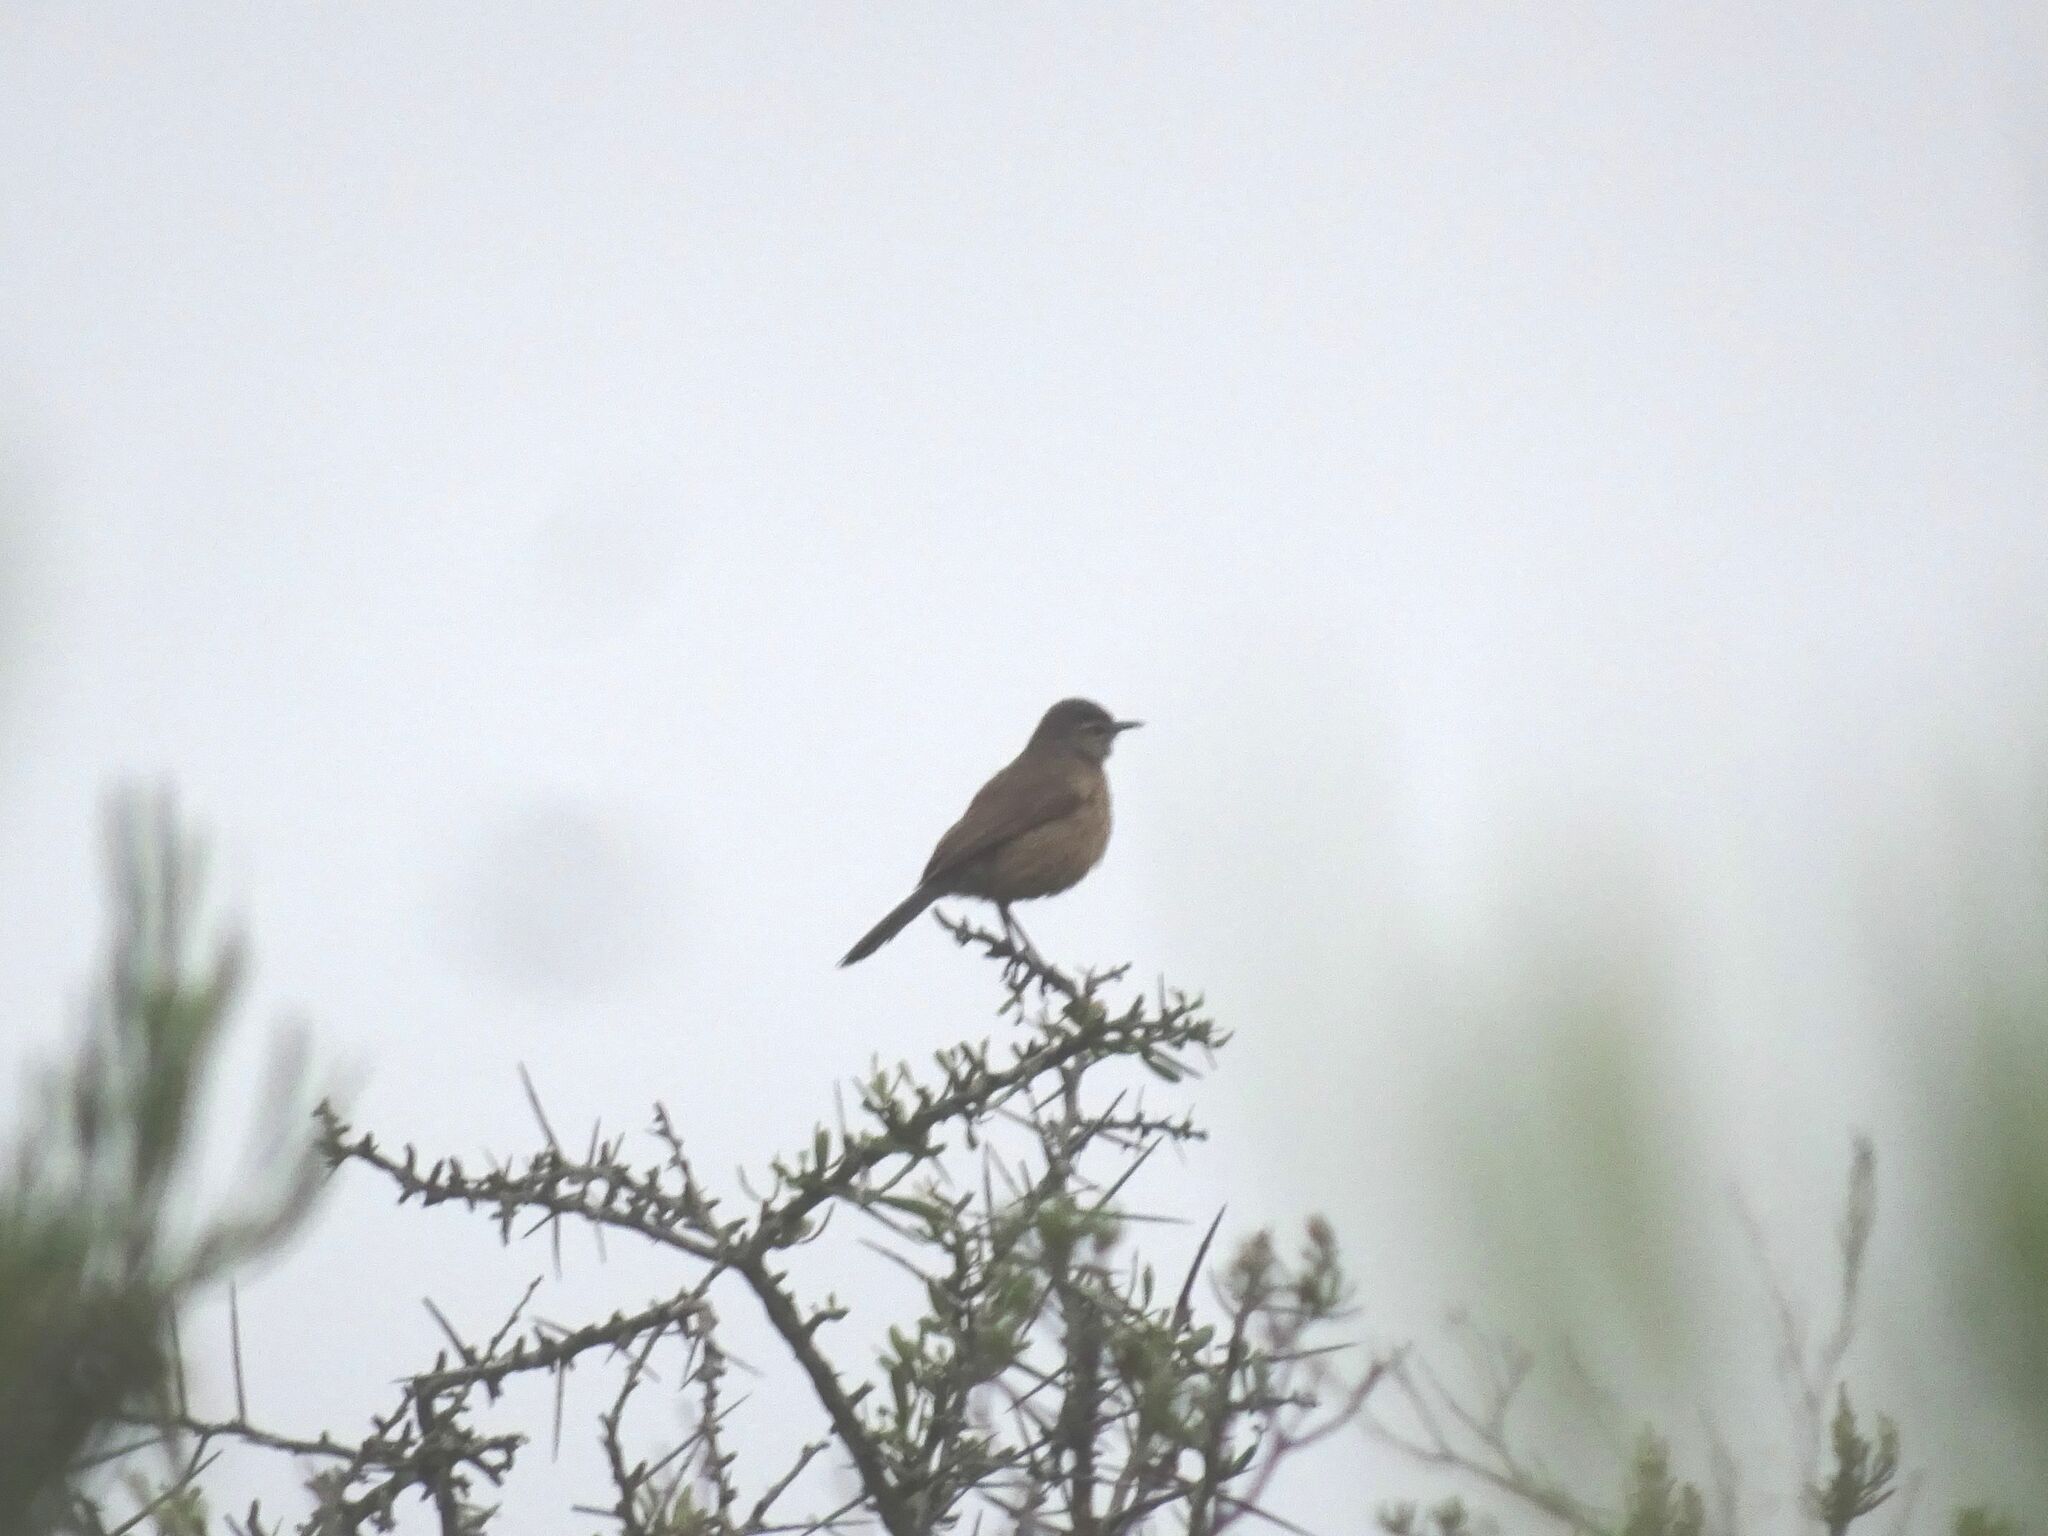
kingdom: Animalia
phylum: Chordata
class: Aves
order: Passeriformes
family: Muscicapidae
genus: Erythropygia
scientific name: Erythropygia coryphoeus
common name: Karoo scrub robin
